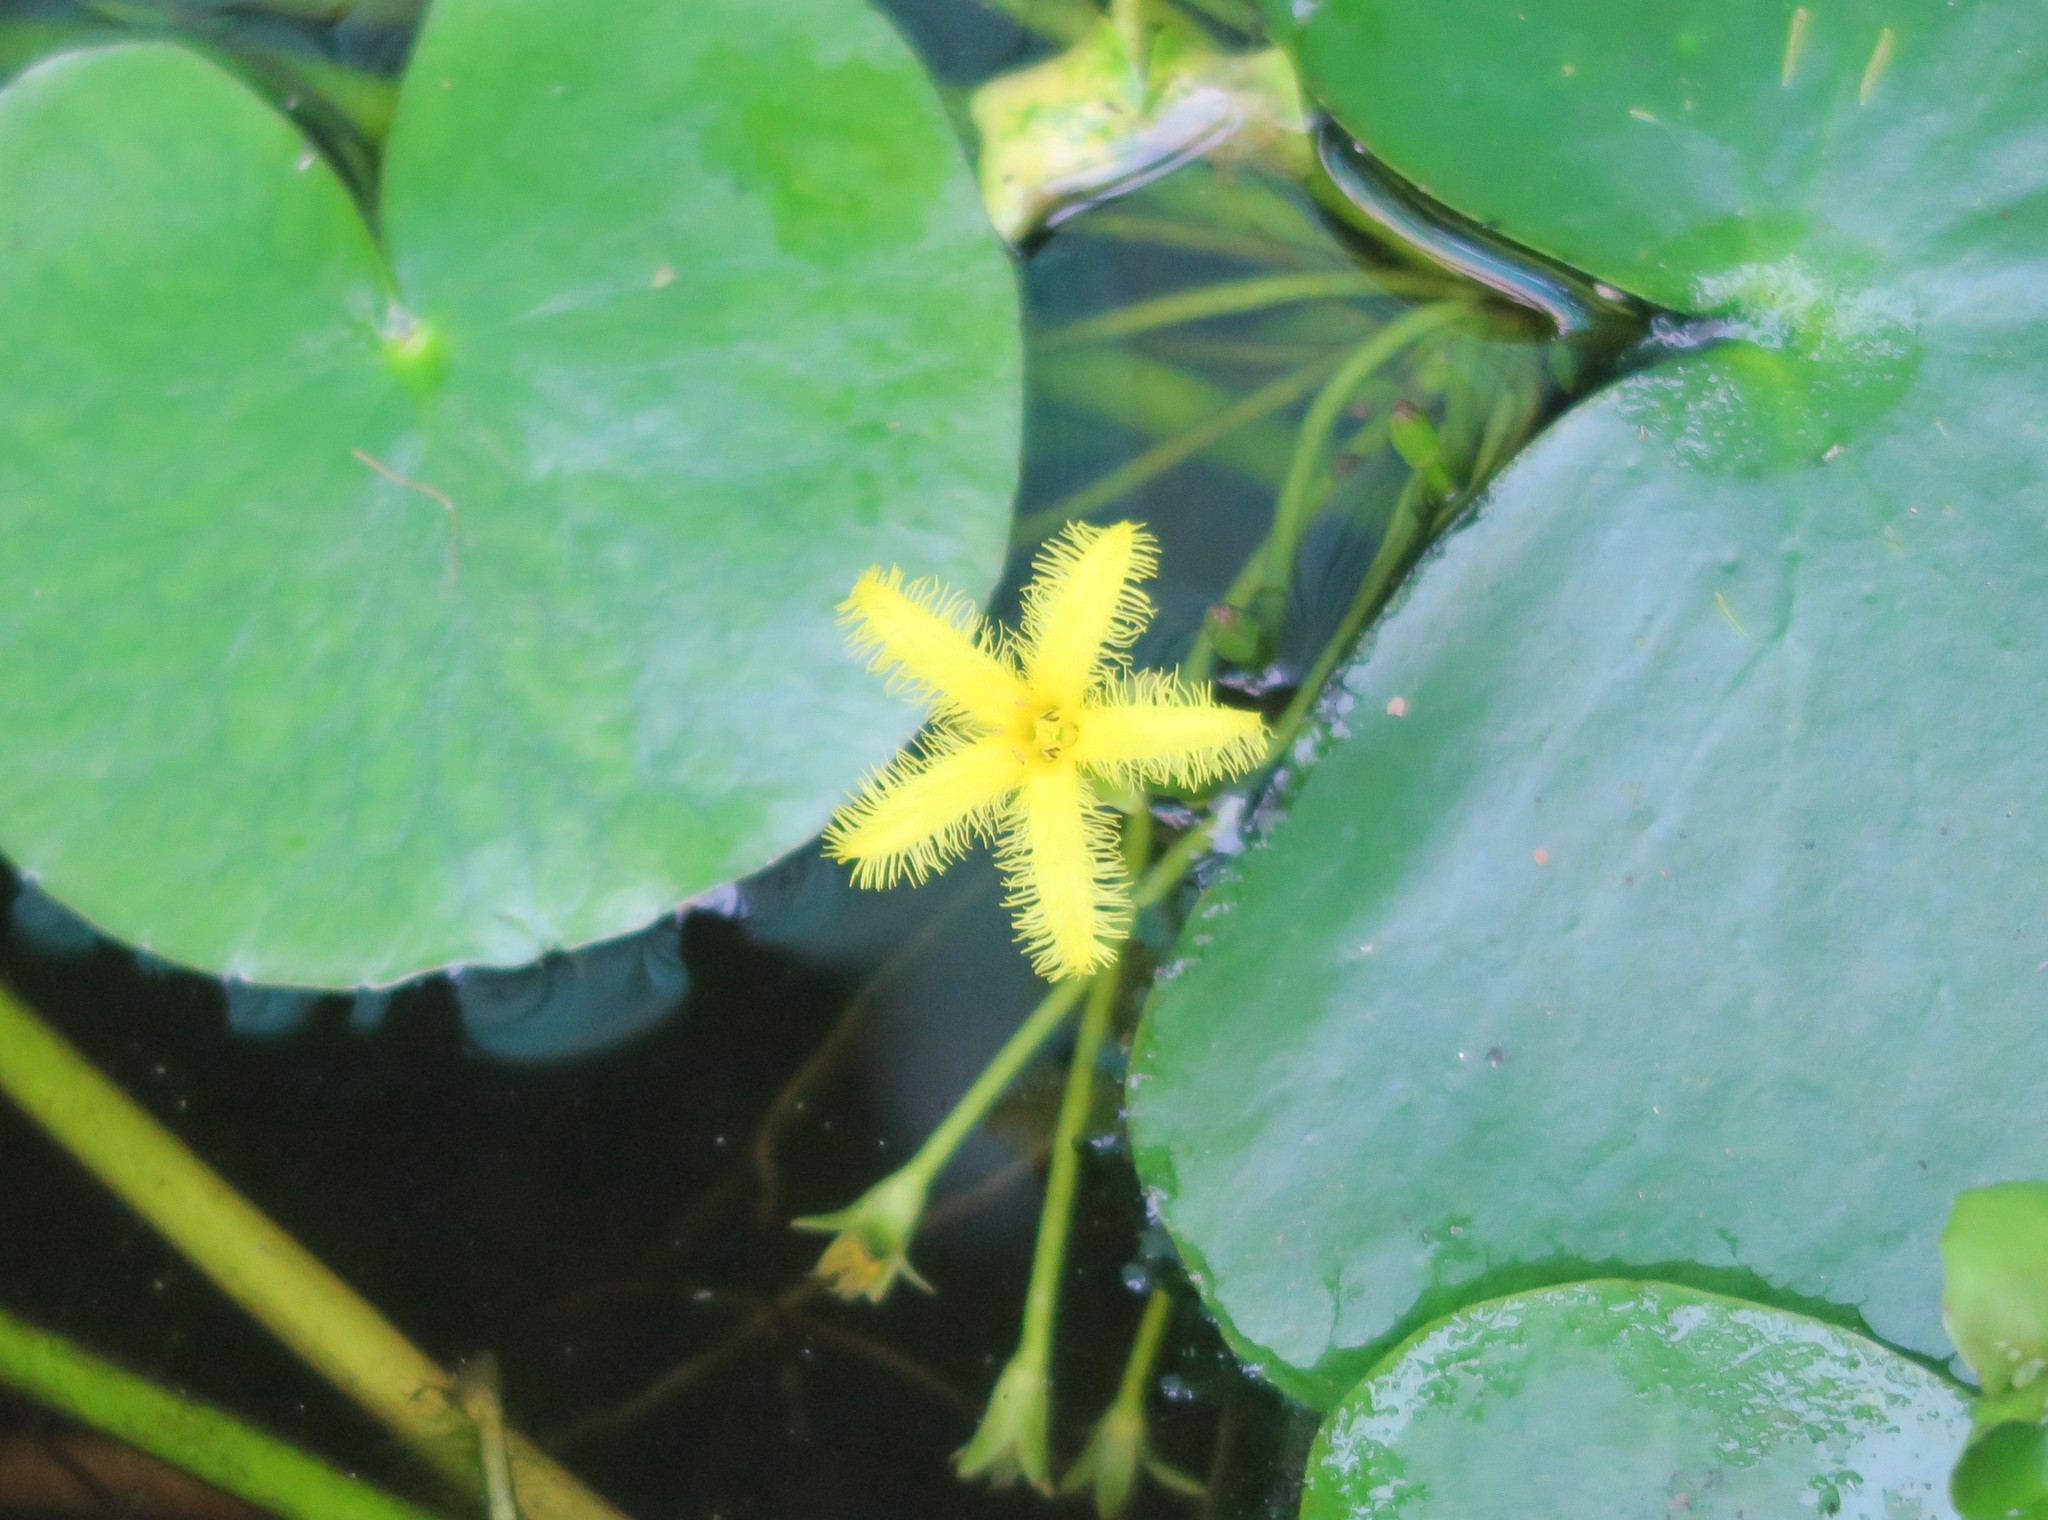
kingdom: Plantae
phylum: Tracheophyta
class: Magnoliopsida
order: Asterales
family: Menyanthaceae
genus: Nymphoides
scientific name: Nymphoides thunbergiana
